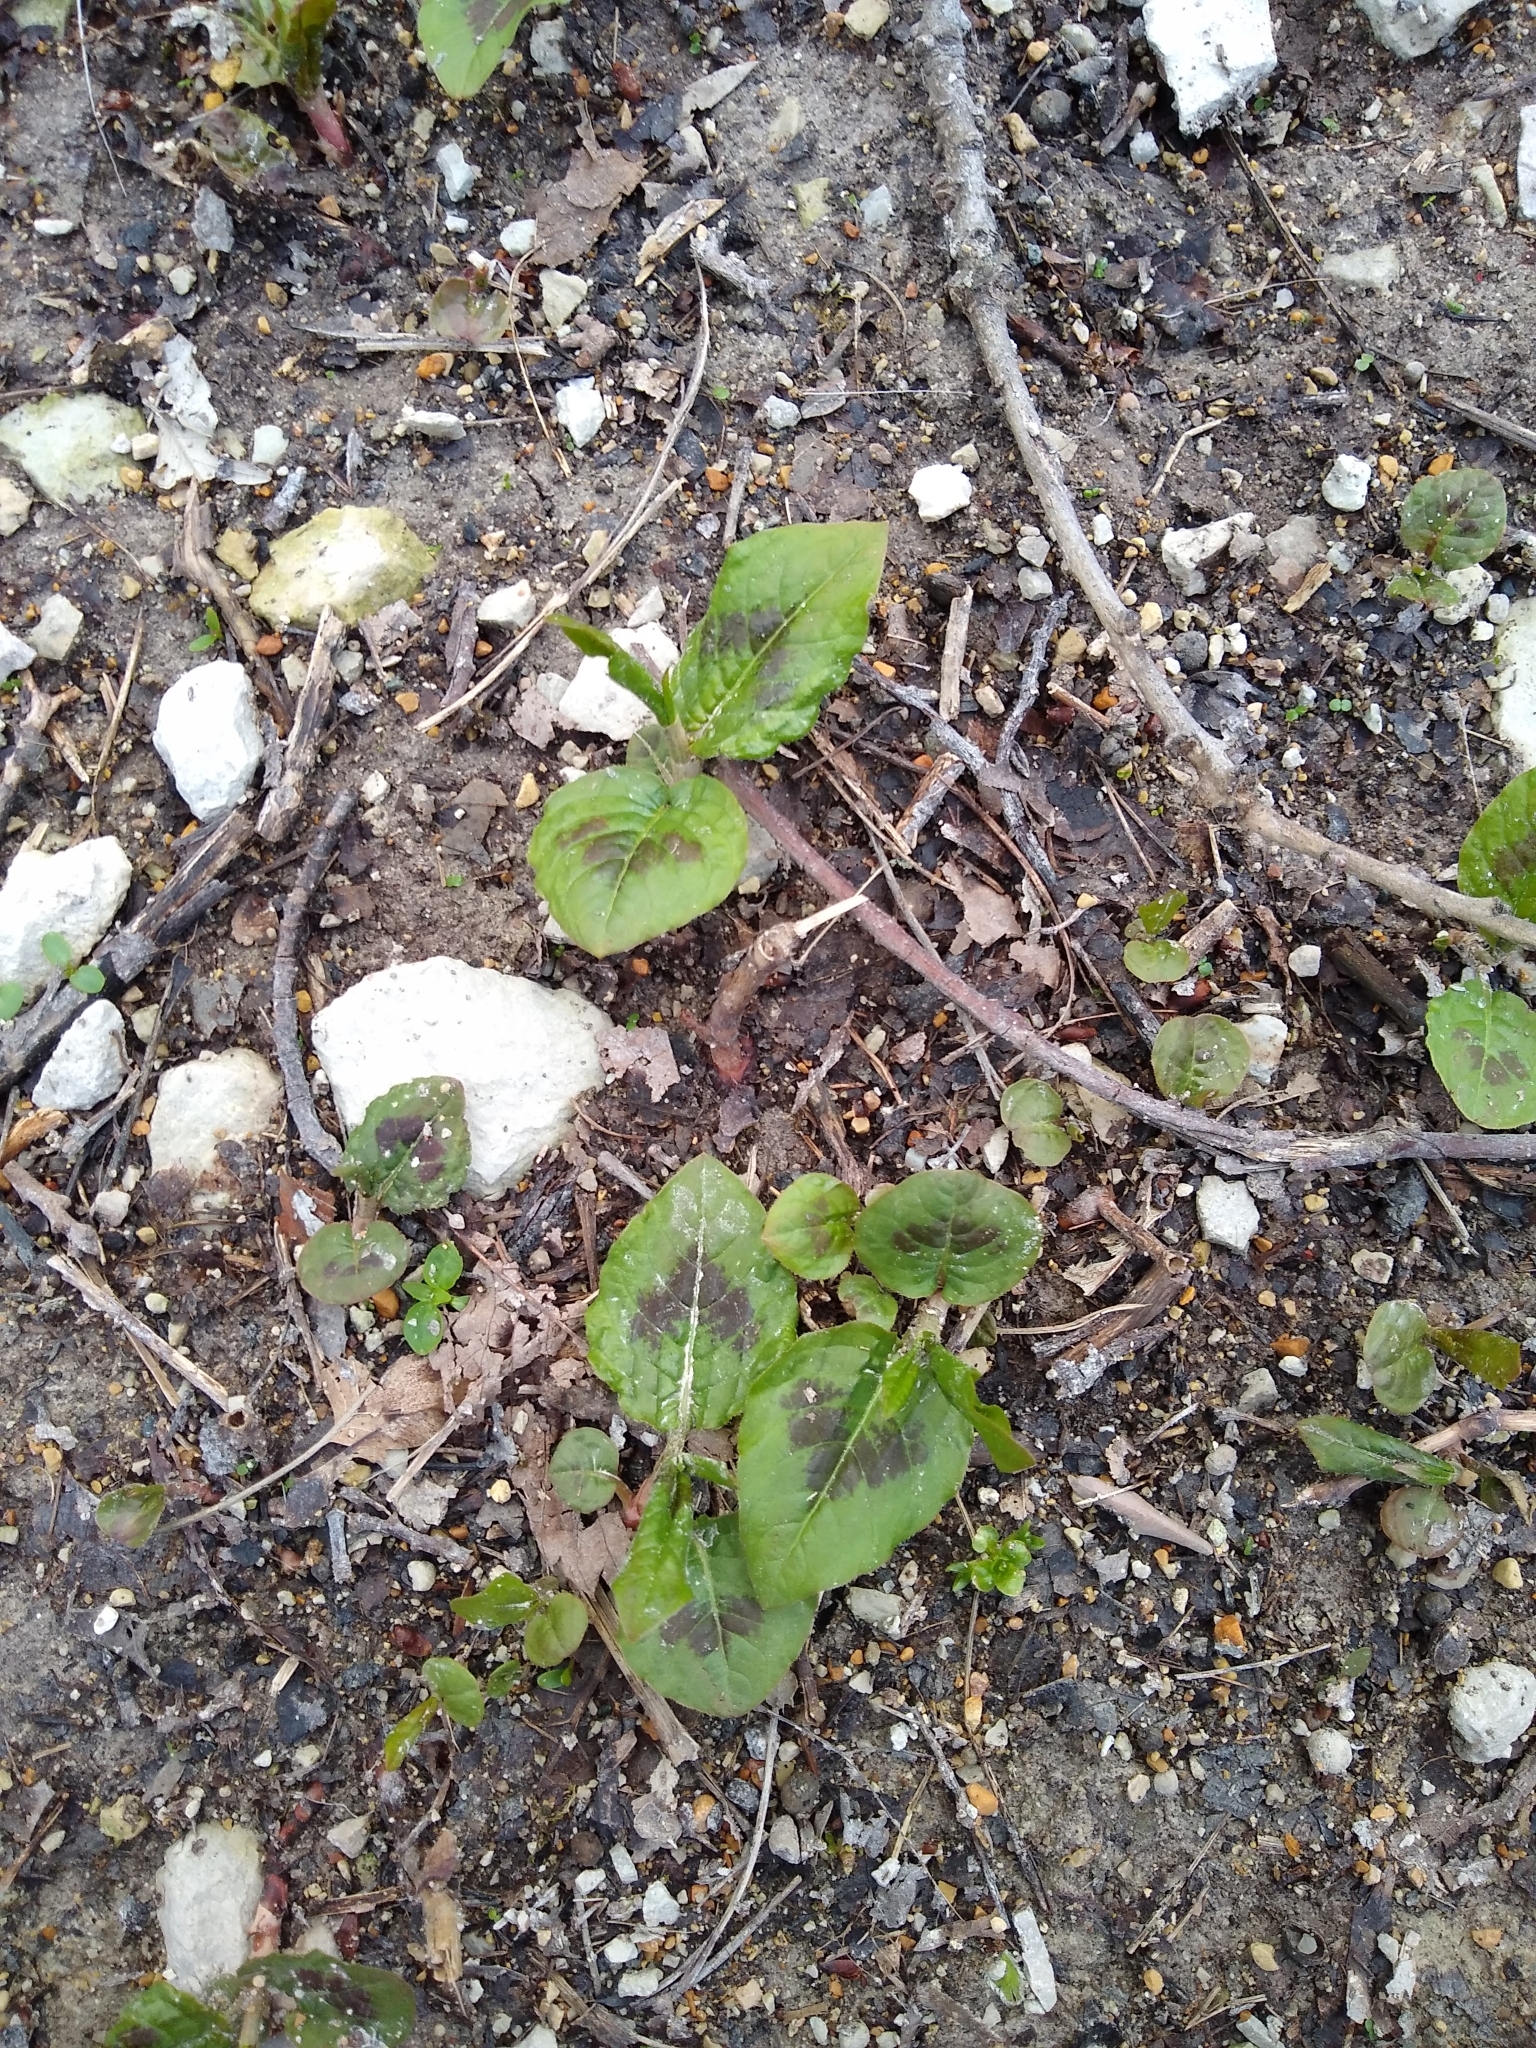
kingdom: Plantae
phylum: Tracheophyta
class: Magnoliopsida
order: Caryophyllales
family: Polygonaceae
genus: Persicaria
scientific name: Persicaria virginiana
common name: Jumpseed
